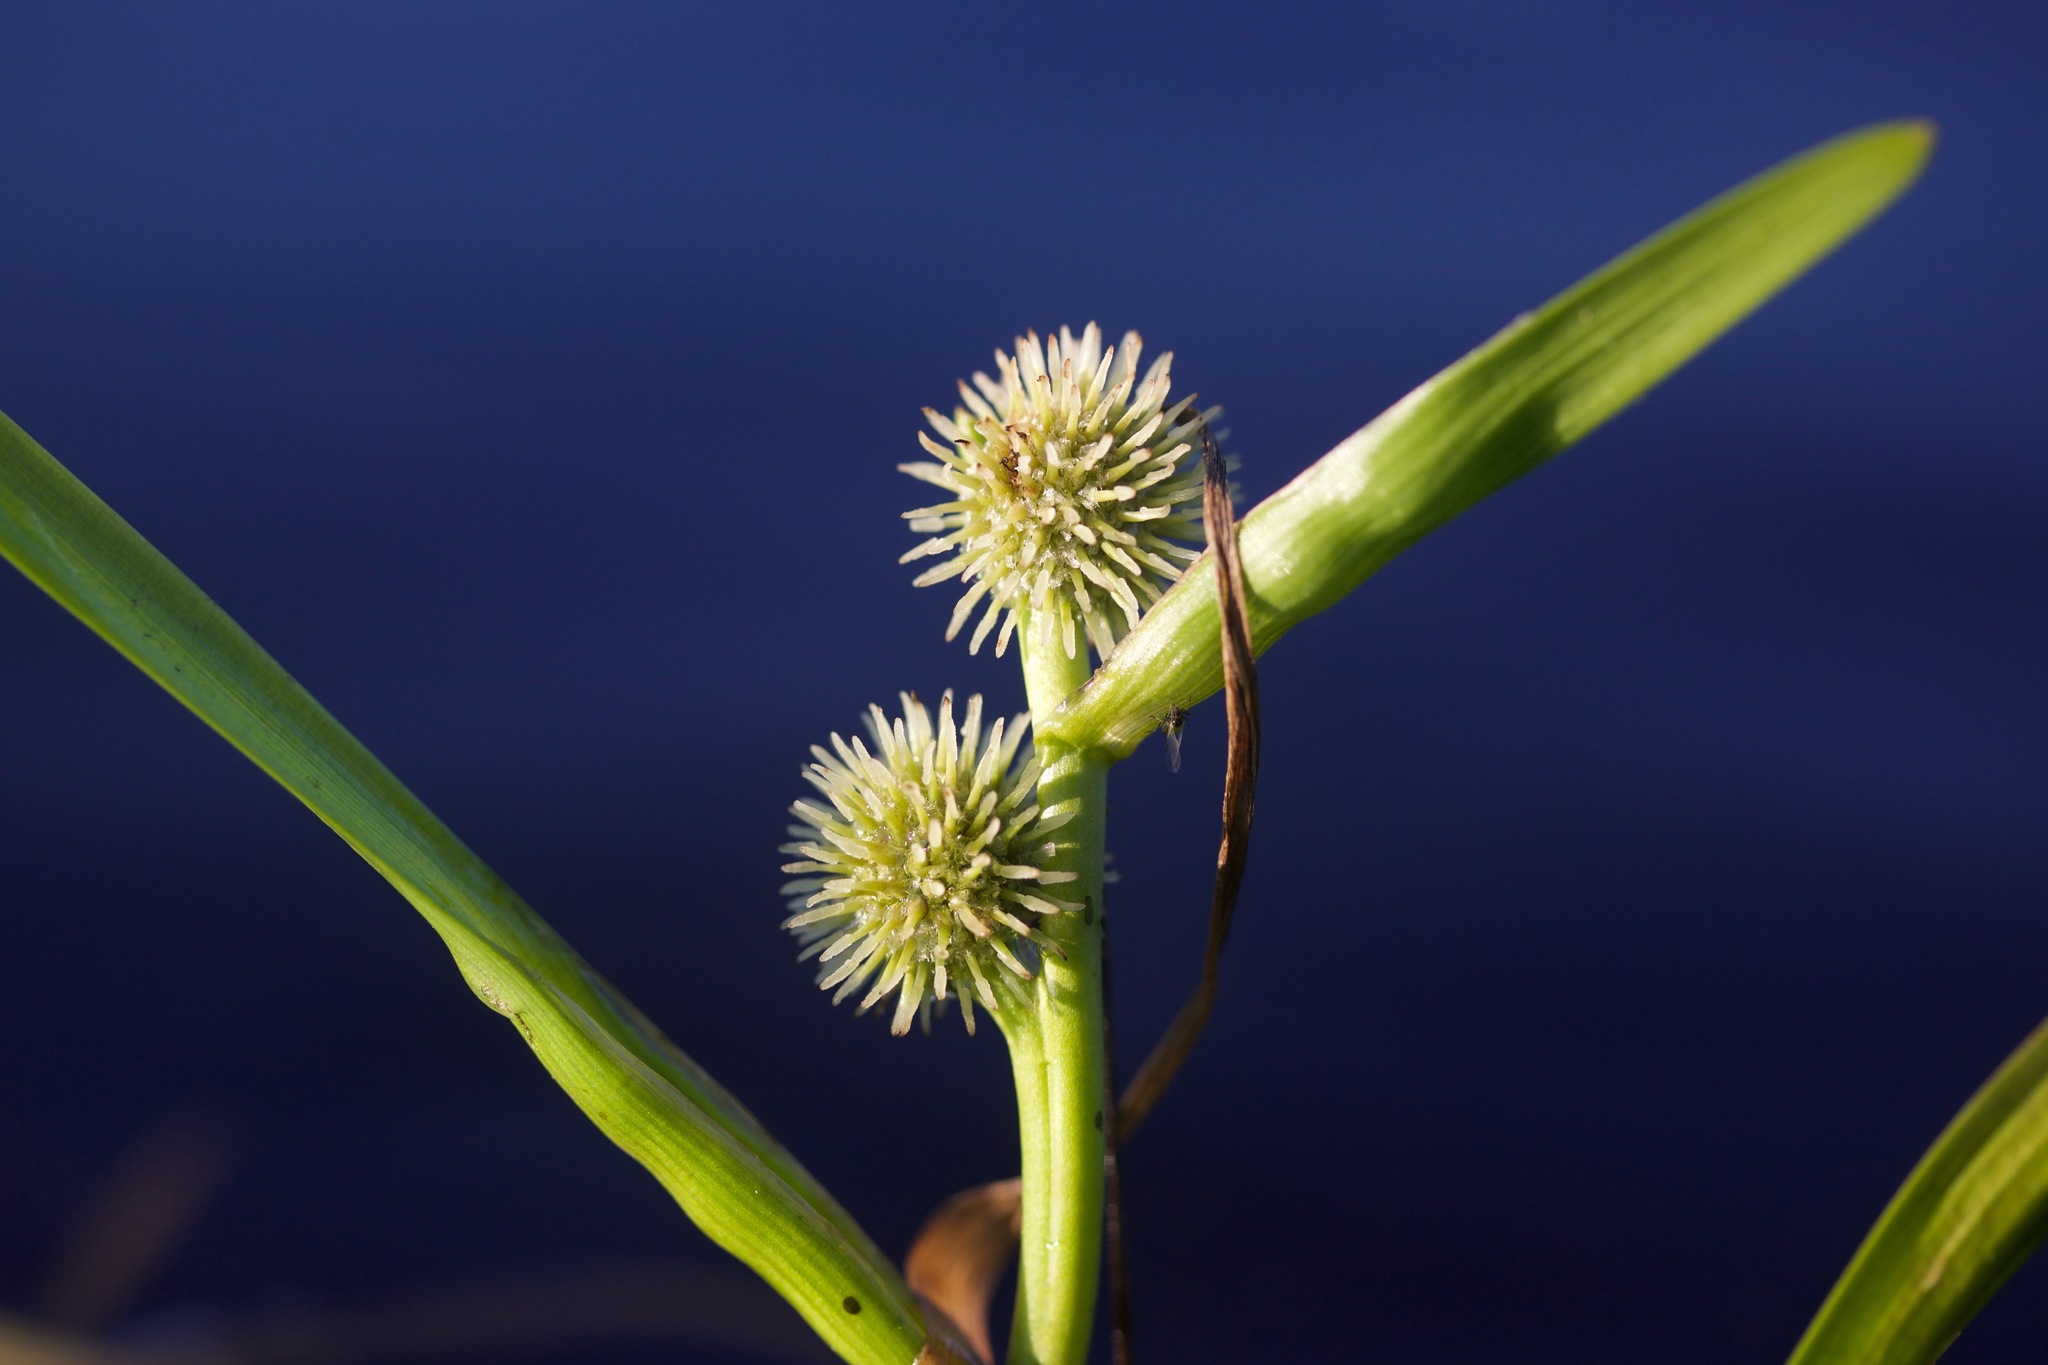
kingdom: Plantae
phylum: Tracheophyta
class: Liliopsida
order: Poales
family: Typhaceae
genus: Sparganium
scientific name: Sparganium emersum
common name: Unbranched bur-reed
